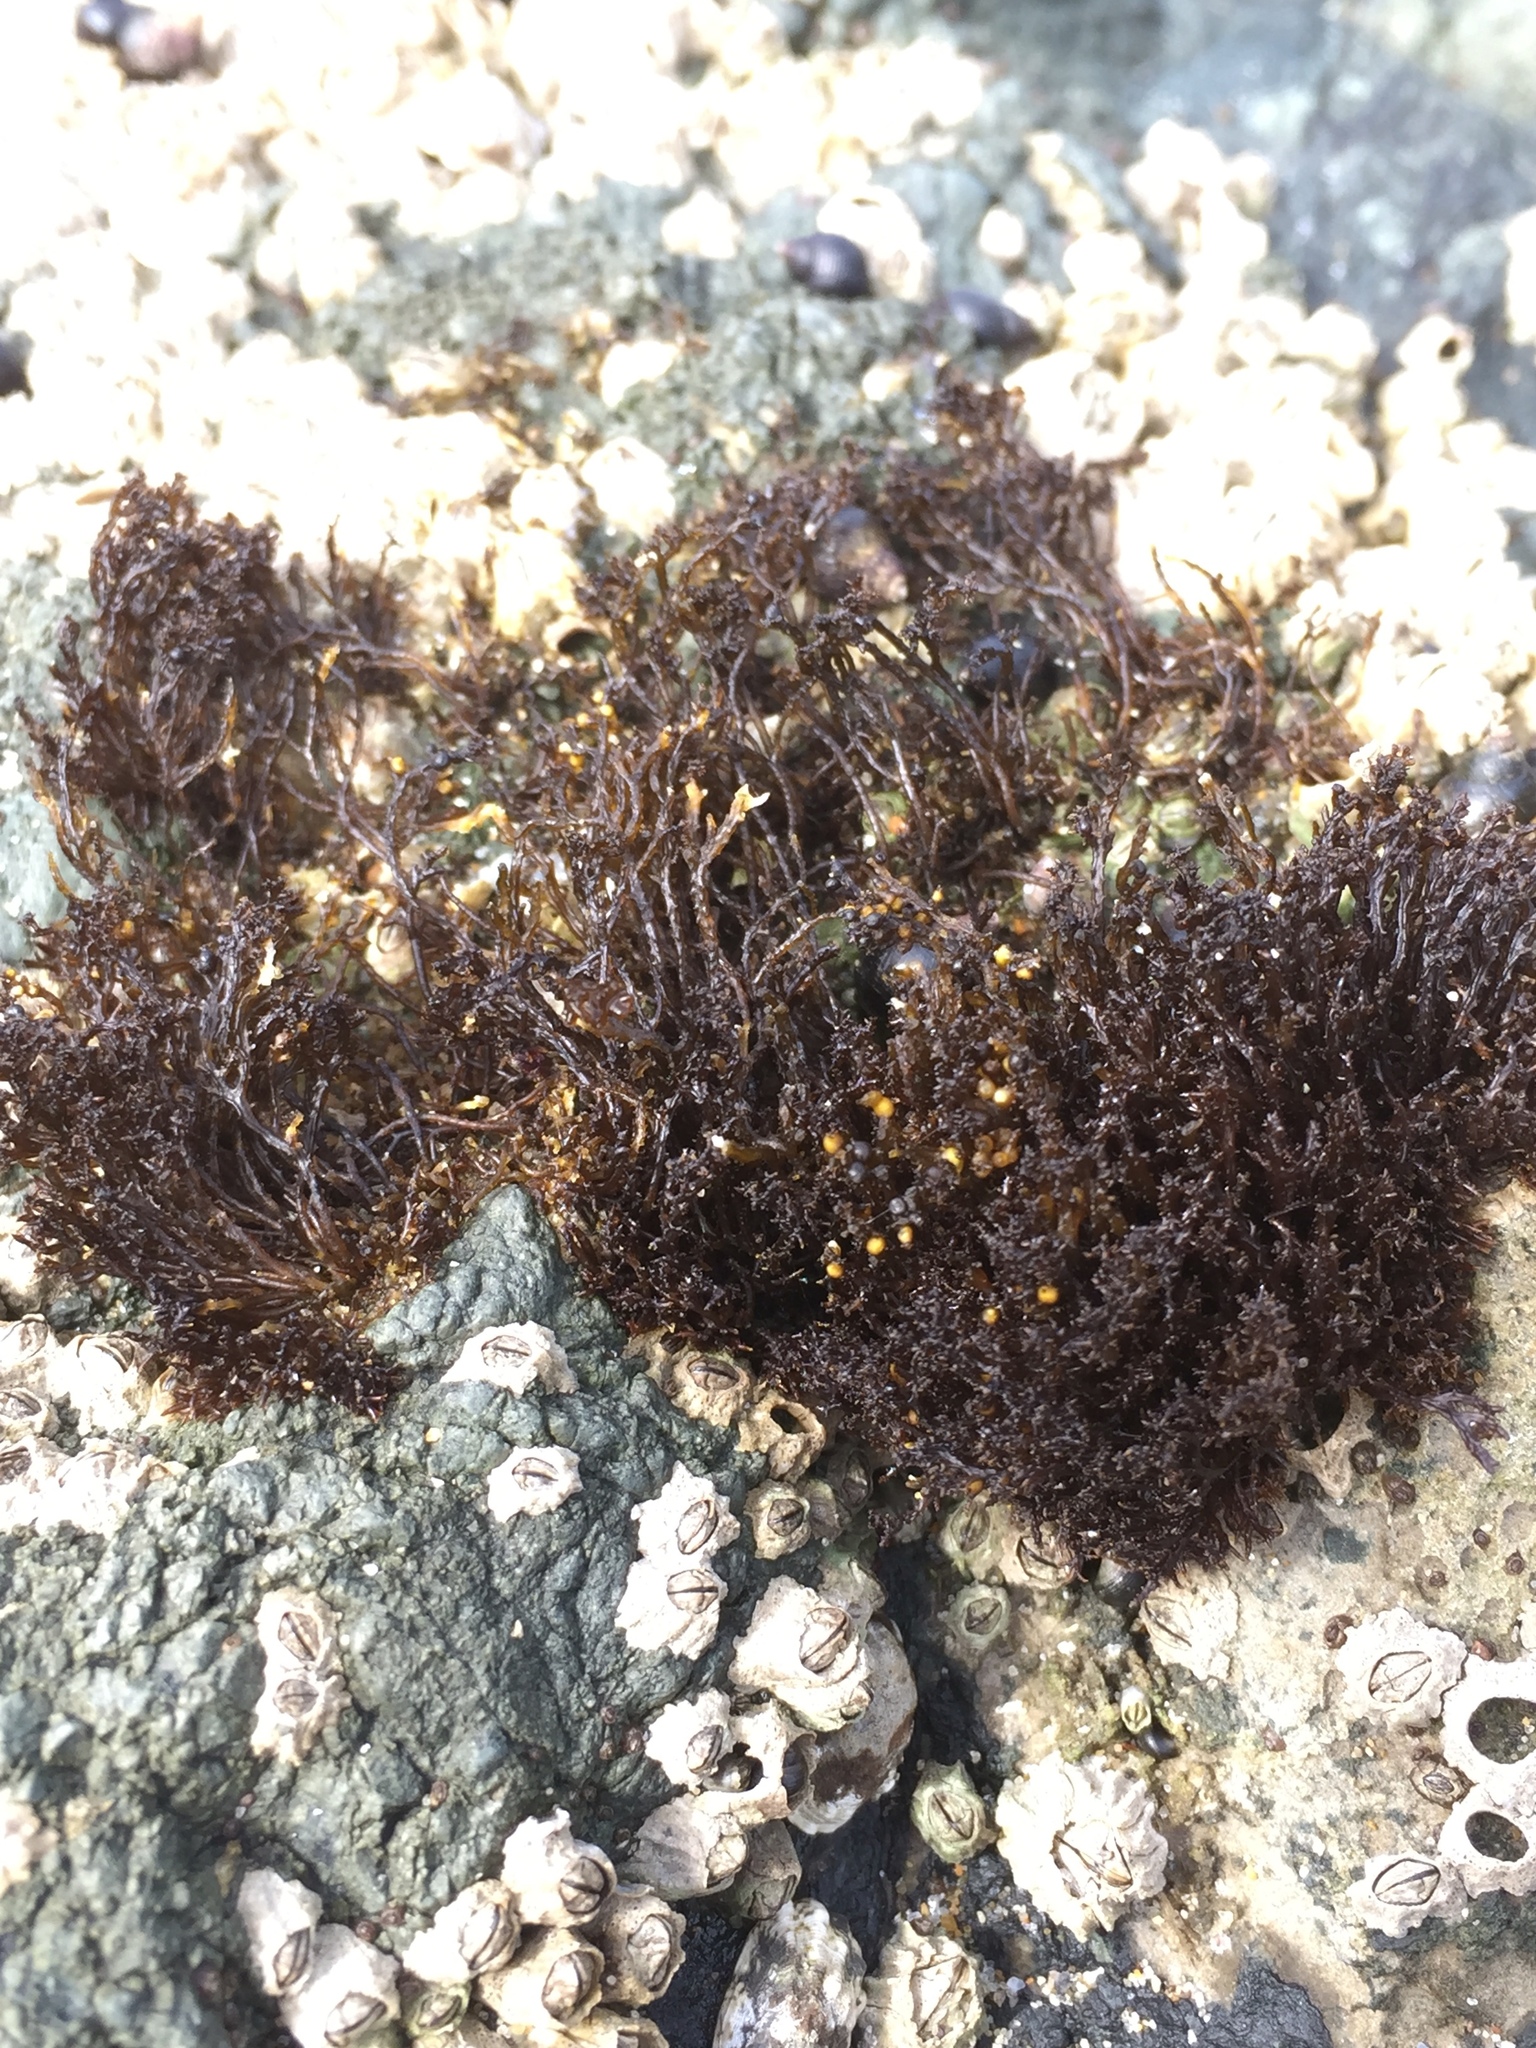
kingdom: Plantae
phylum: Rhodophyta
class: Florideophyceae
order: Gigartinales
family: Endocladiaceae
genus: Endocladia
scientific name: Endocladia muricata
